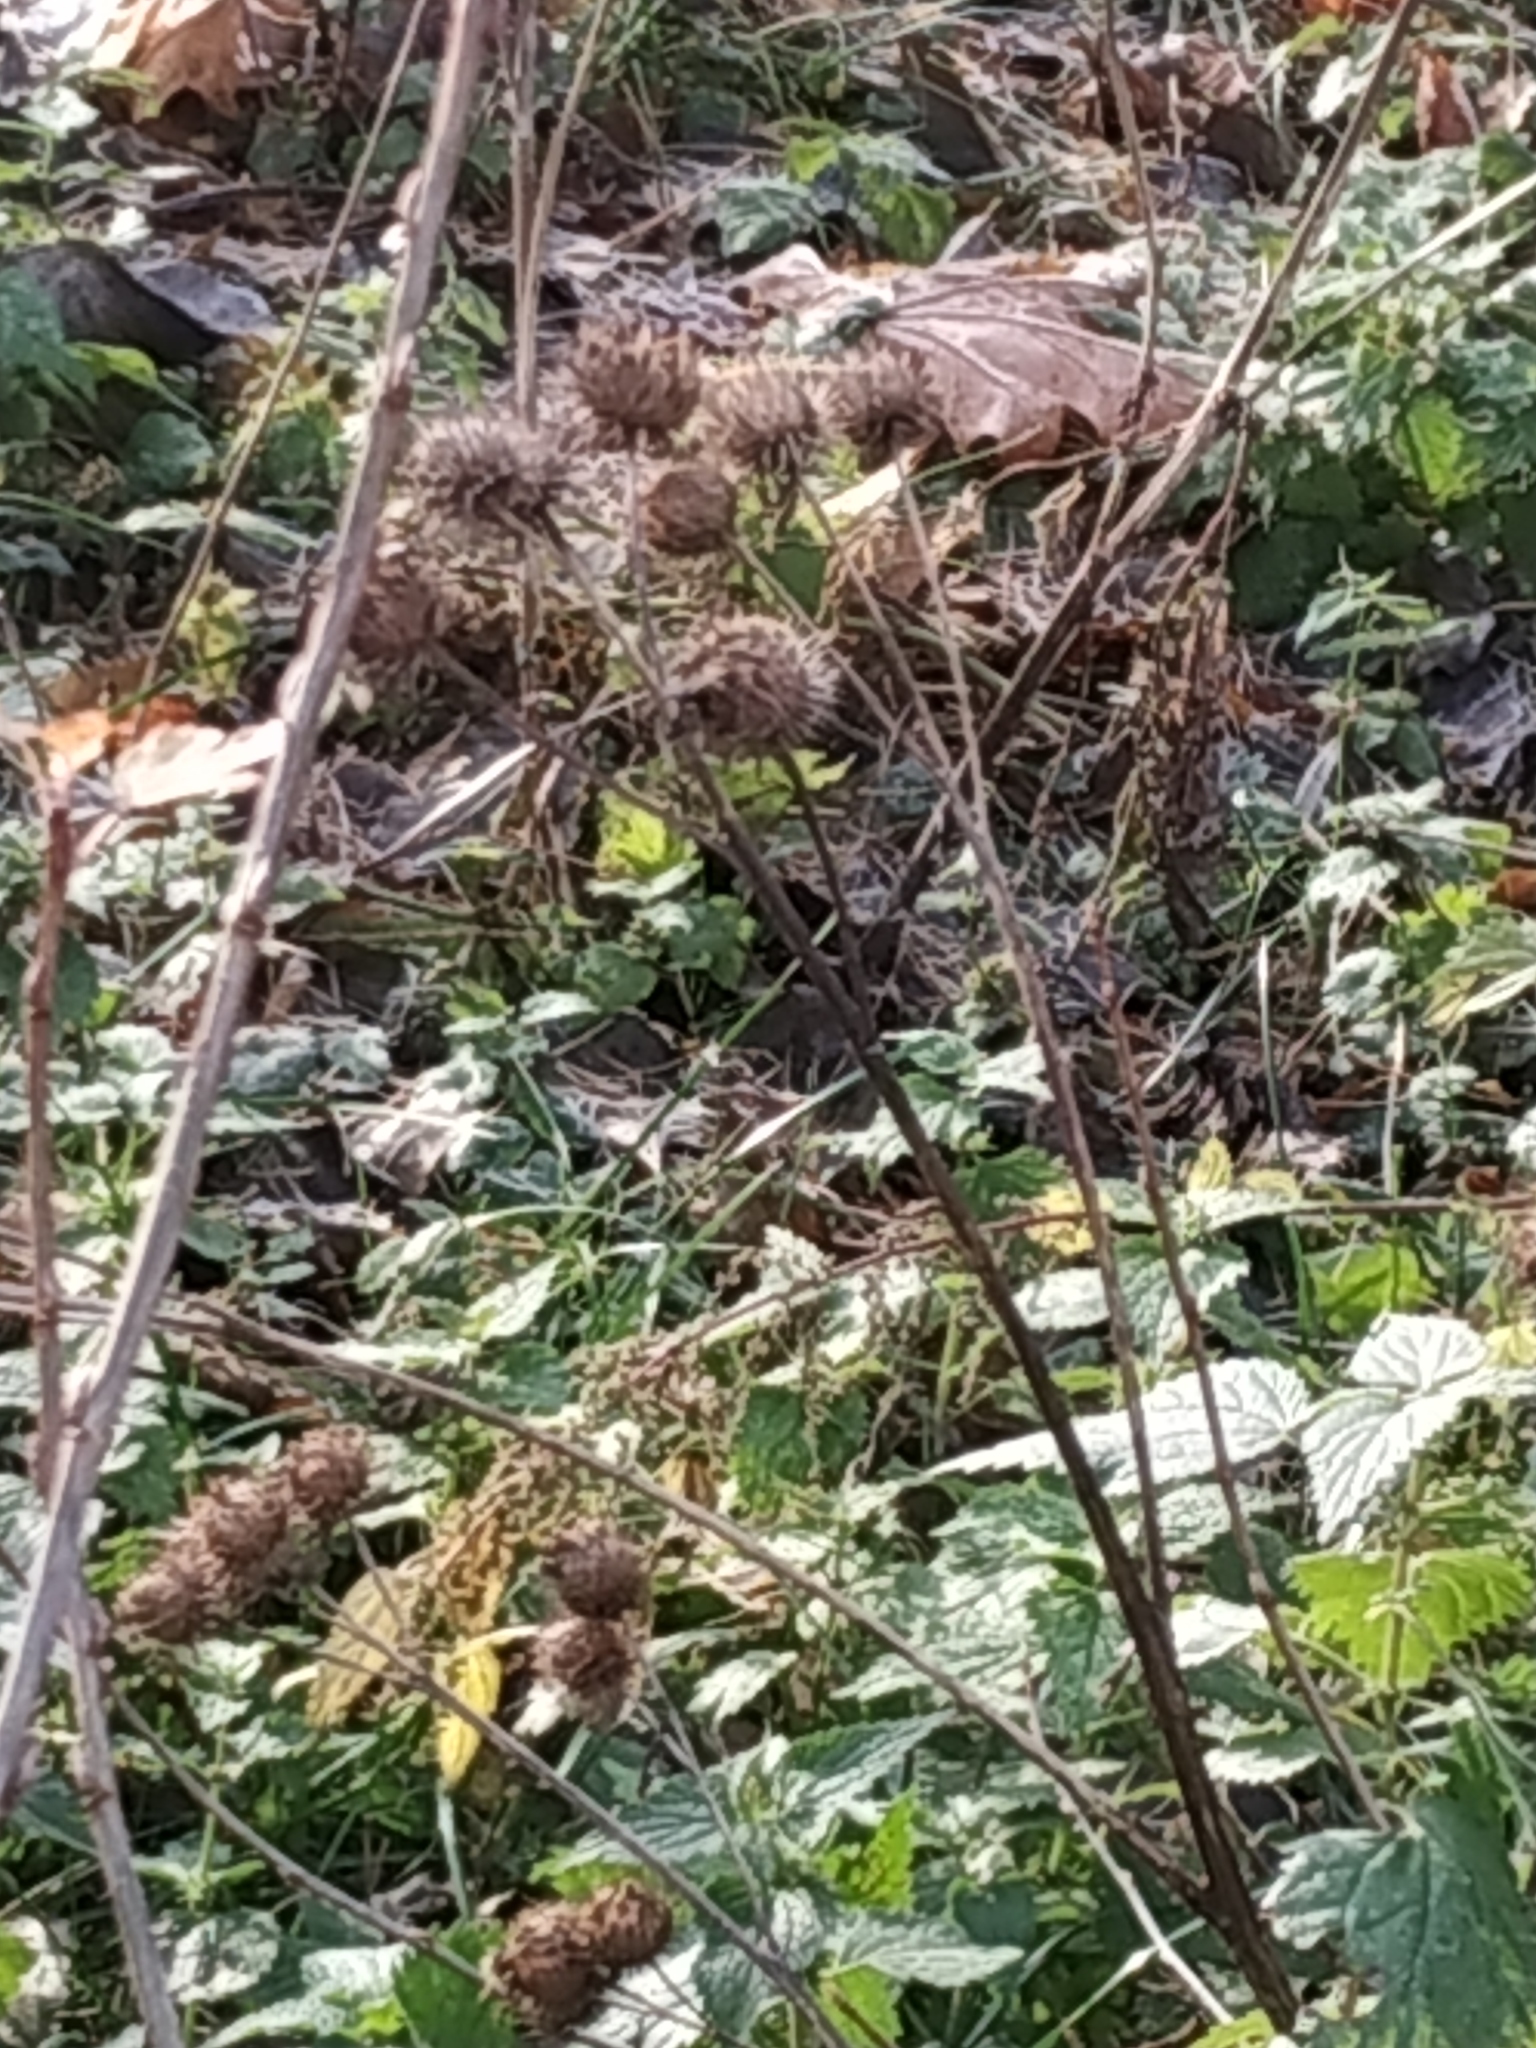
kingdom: Plantae
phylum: Tracheophyta
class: Magnoliopsida
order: Asterales
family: Asteraceae
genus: Arctium
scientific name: Arctium tomentosum
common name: Woolly burdock
